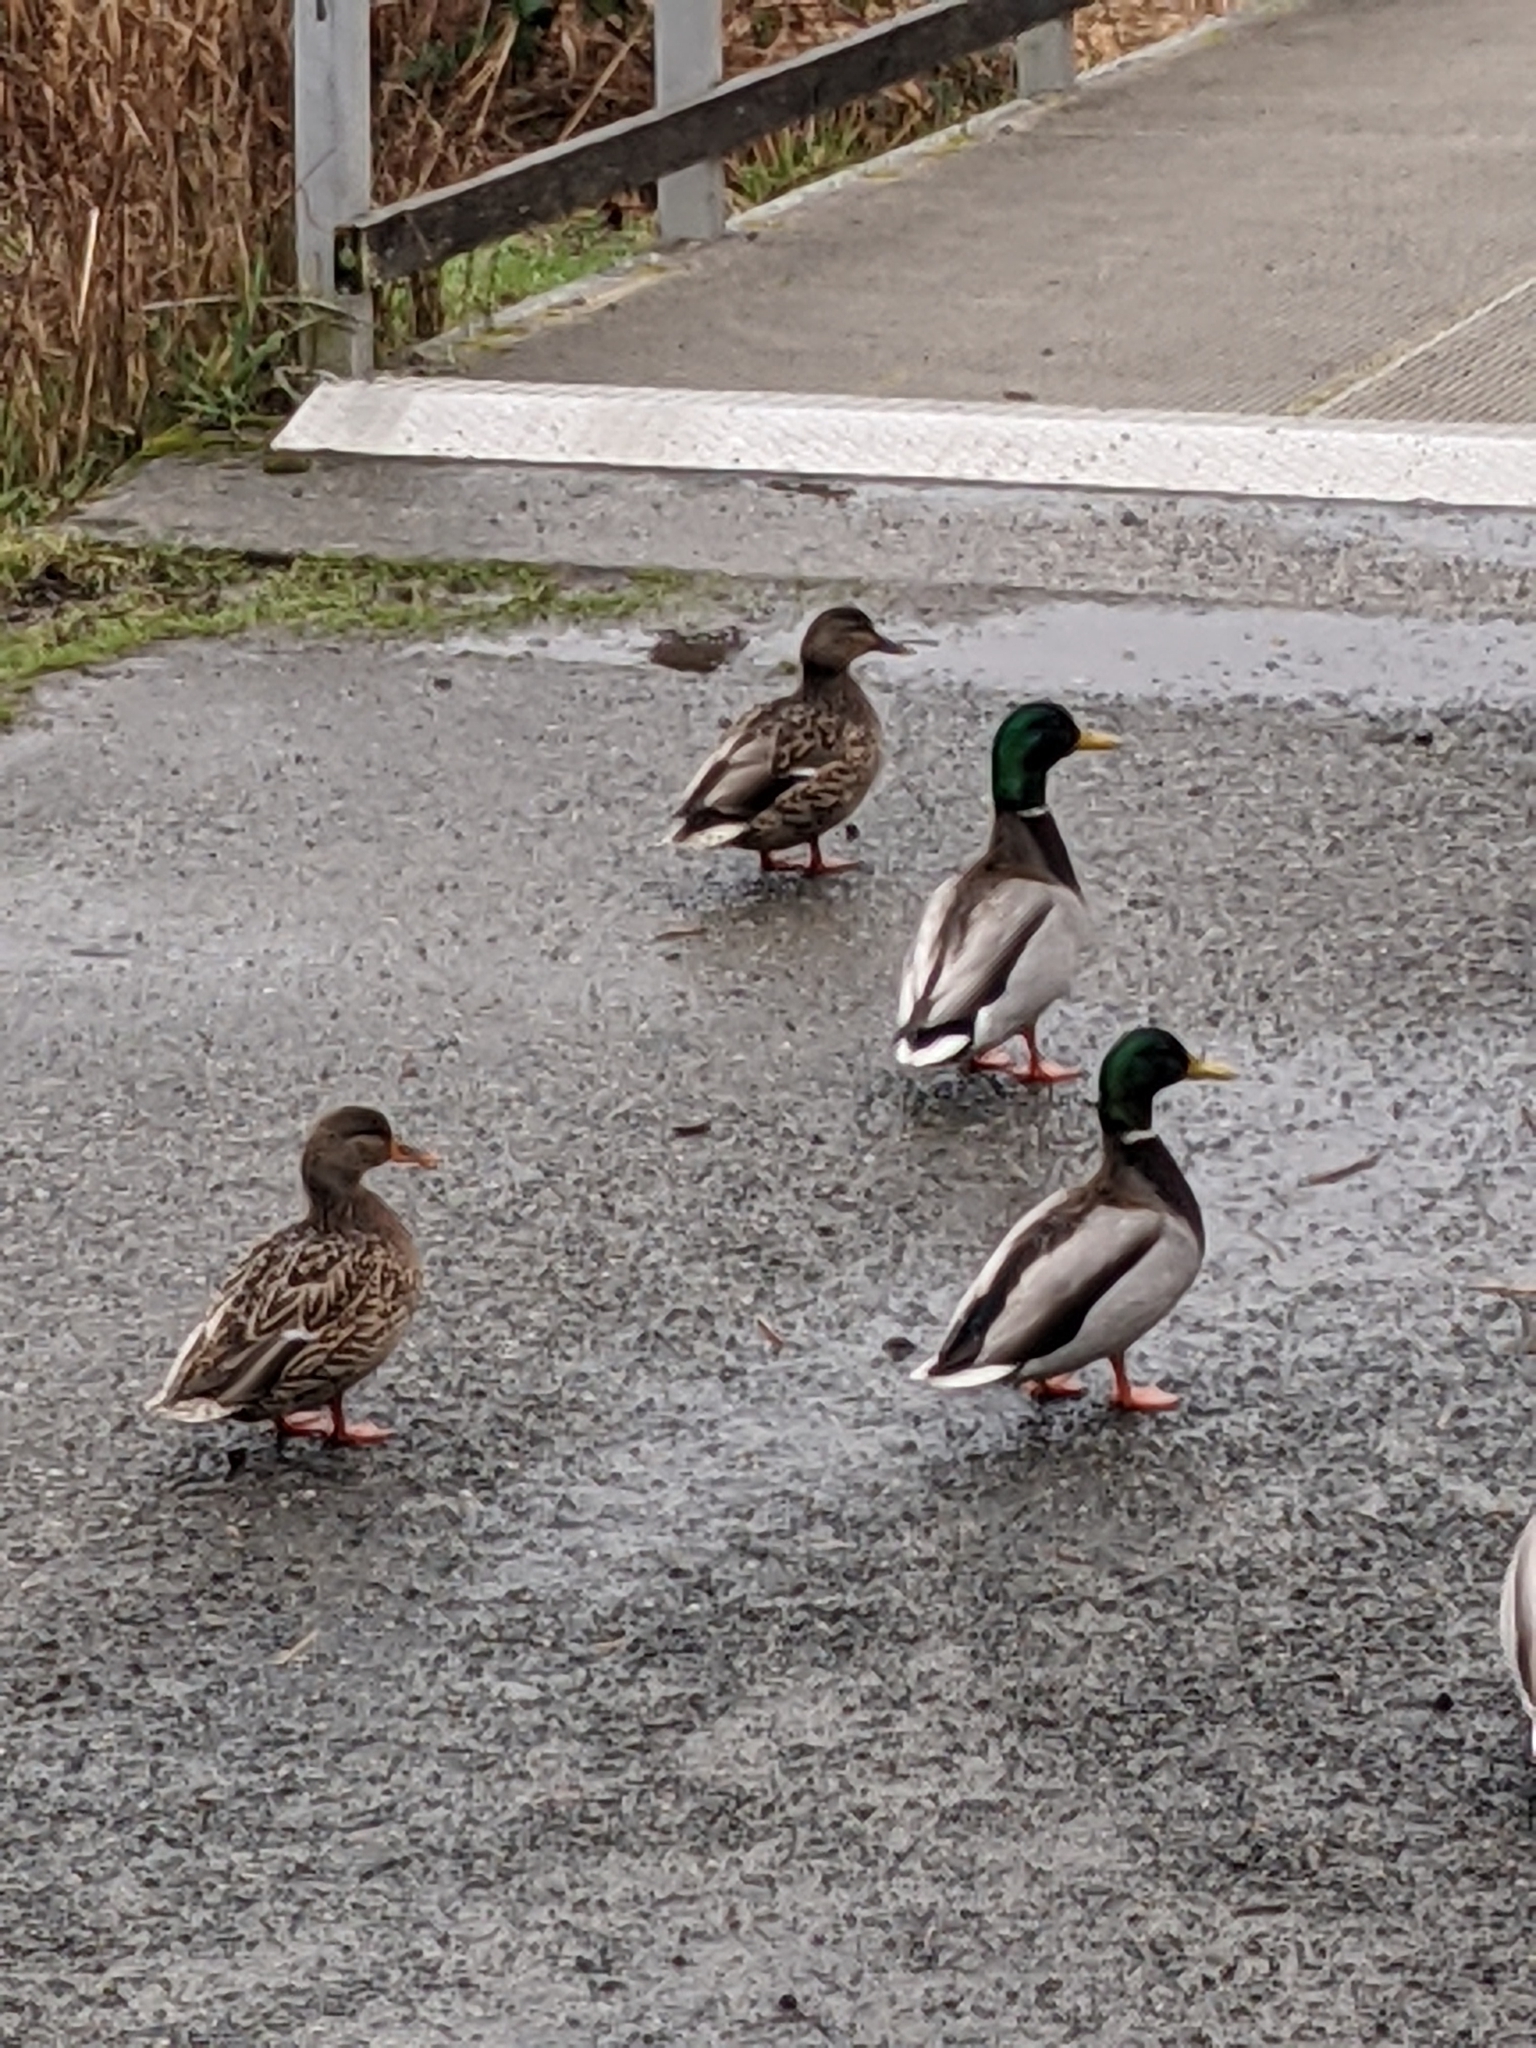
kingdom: Animalia
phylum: Chordata
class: Aves
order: Anseriformes
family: Anatidae
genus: Anas
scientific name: Anas platyrhynchos
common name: Mallard
